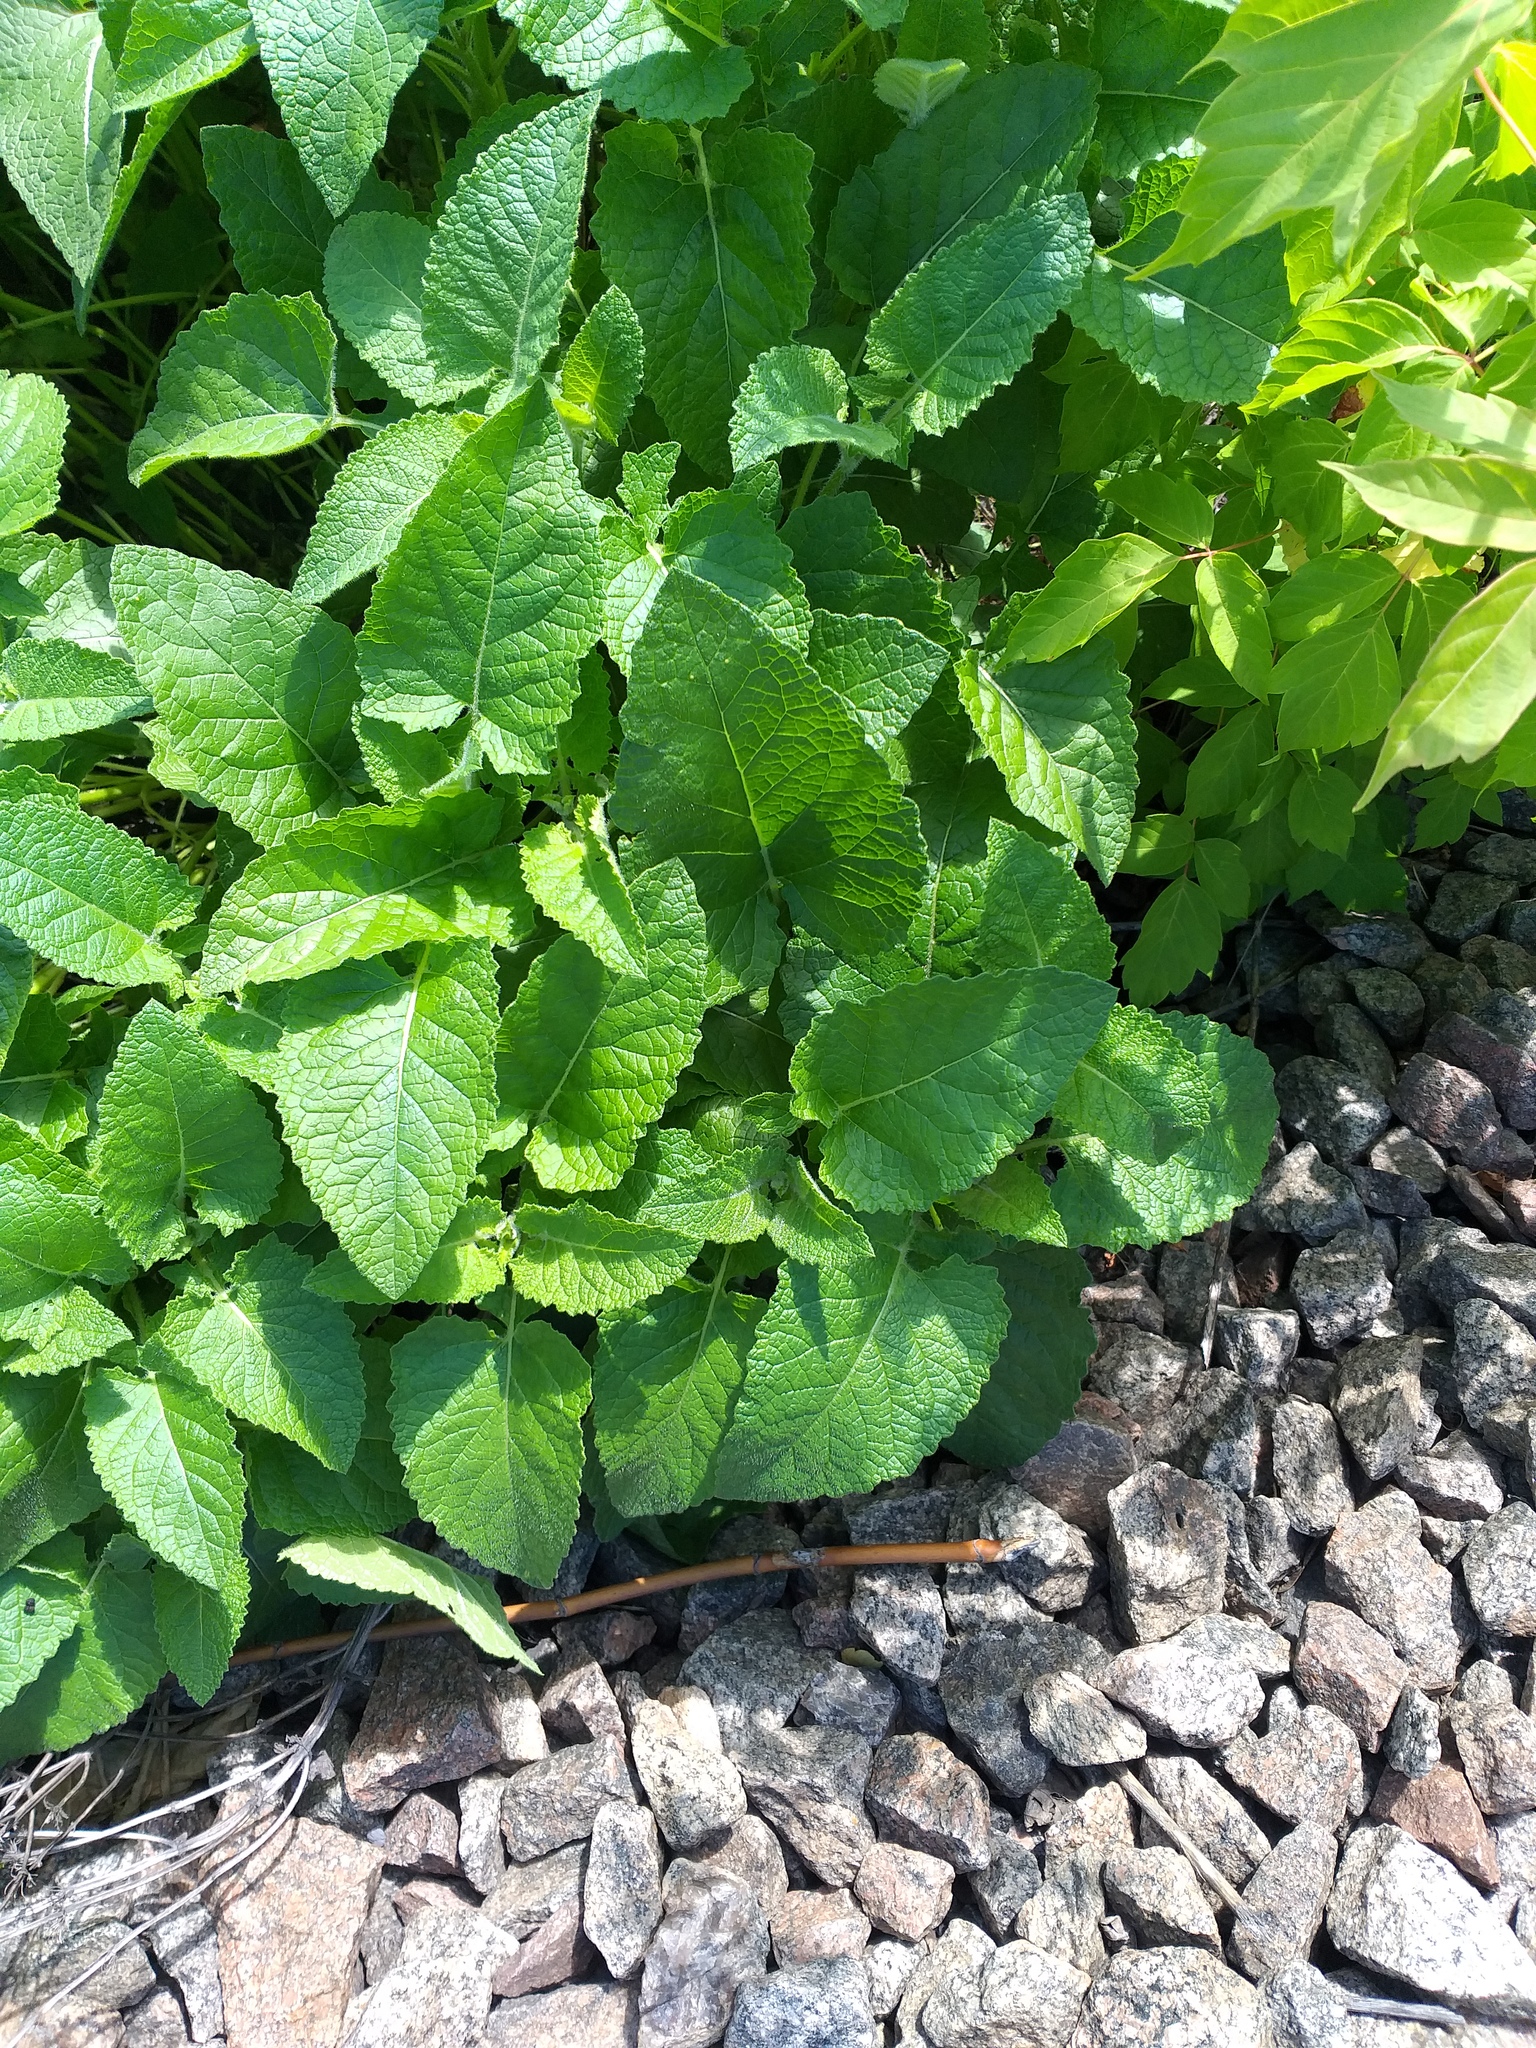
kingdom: Plantae
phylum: Tracheophyta
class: Magnoliopsida
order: Lamiales
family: Lamiaceae
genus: Salvia
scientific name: Salvia verticillata
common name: Whorled clary
